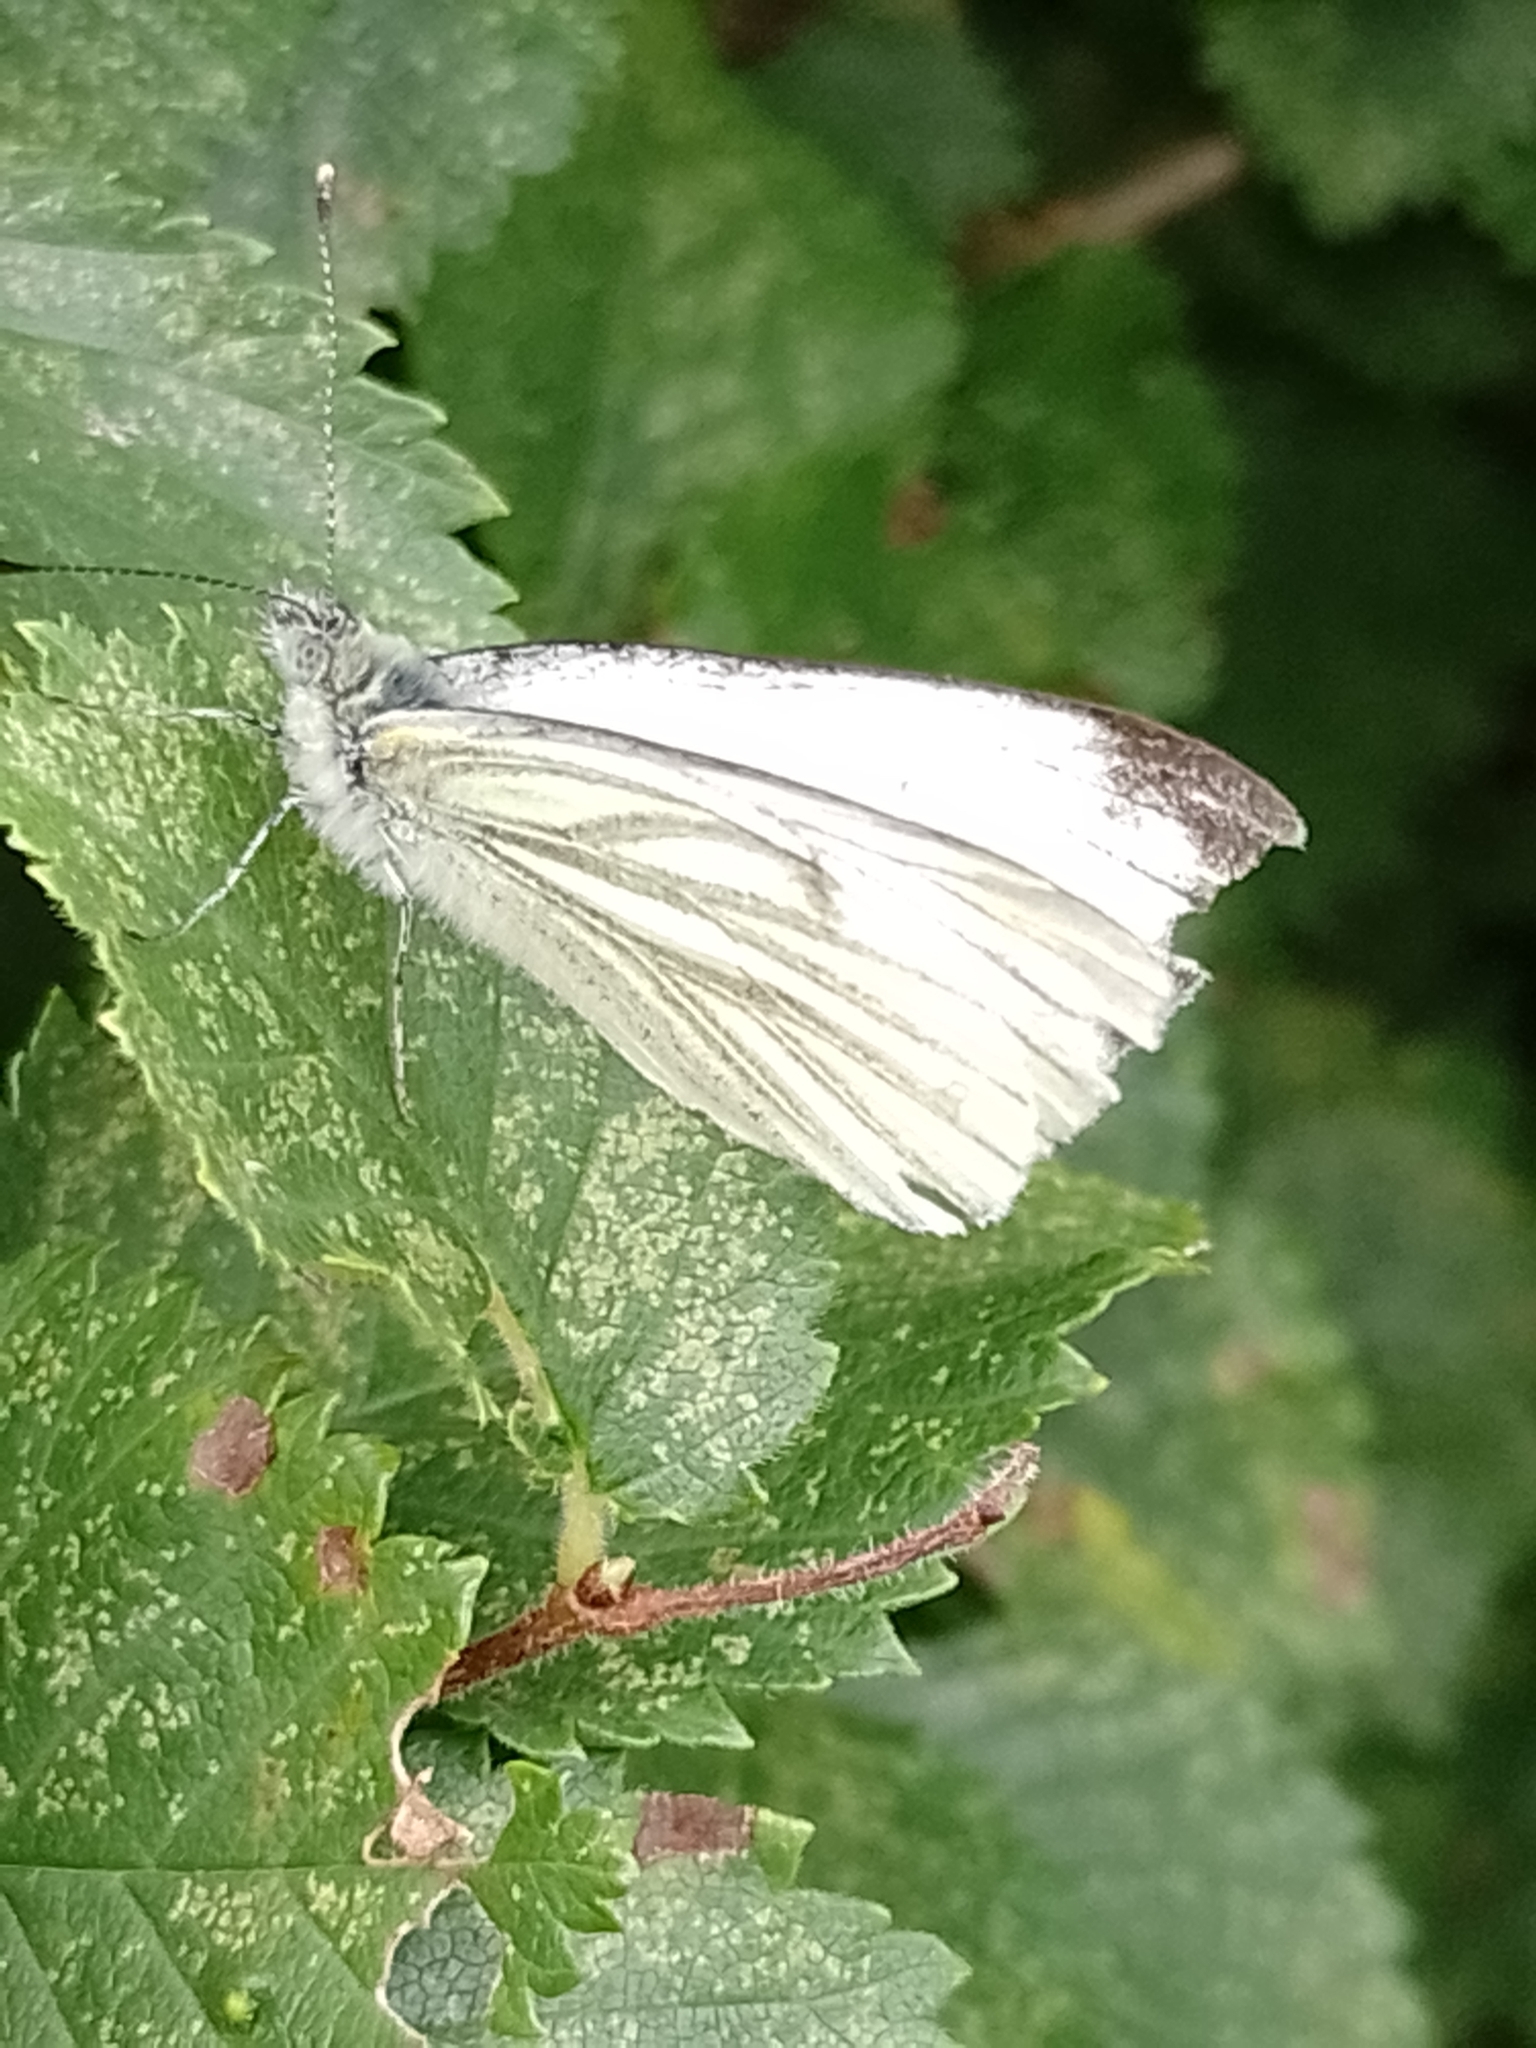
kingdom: Animalia
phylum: Arthropoda
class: Insecta
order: Lepidoptera
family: Pieridae
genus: Pieris
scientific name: Pieris napi
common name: Green-veined white
